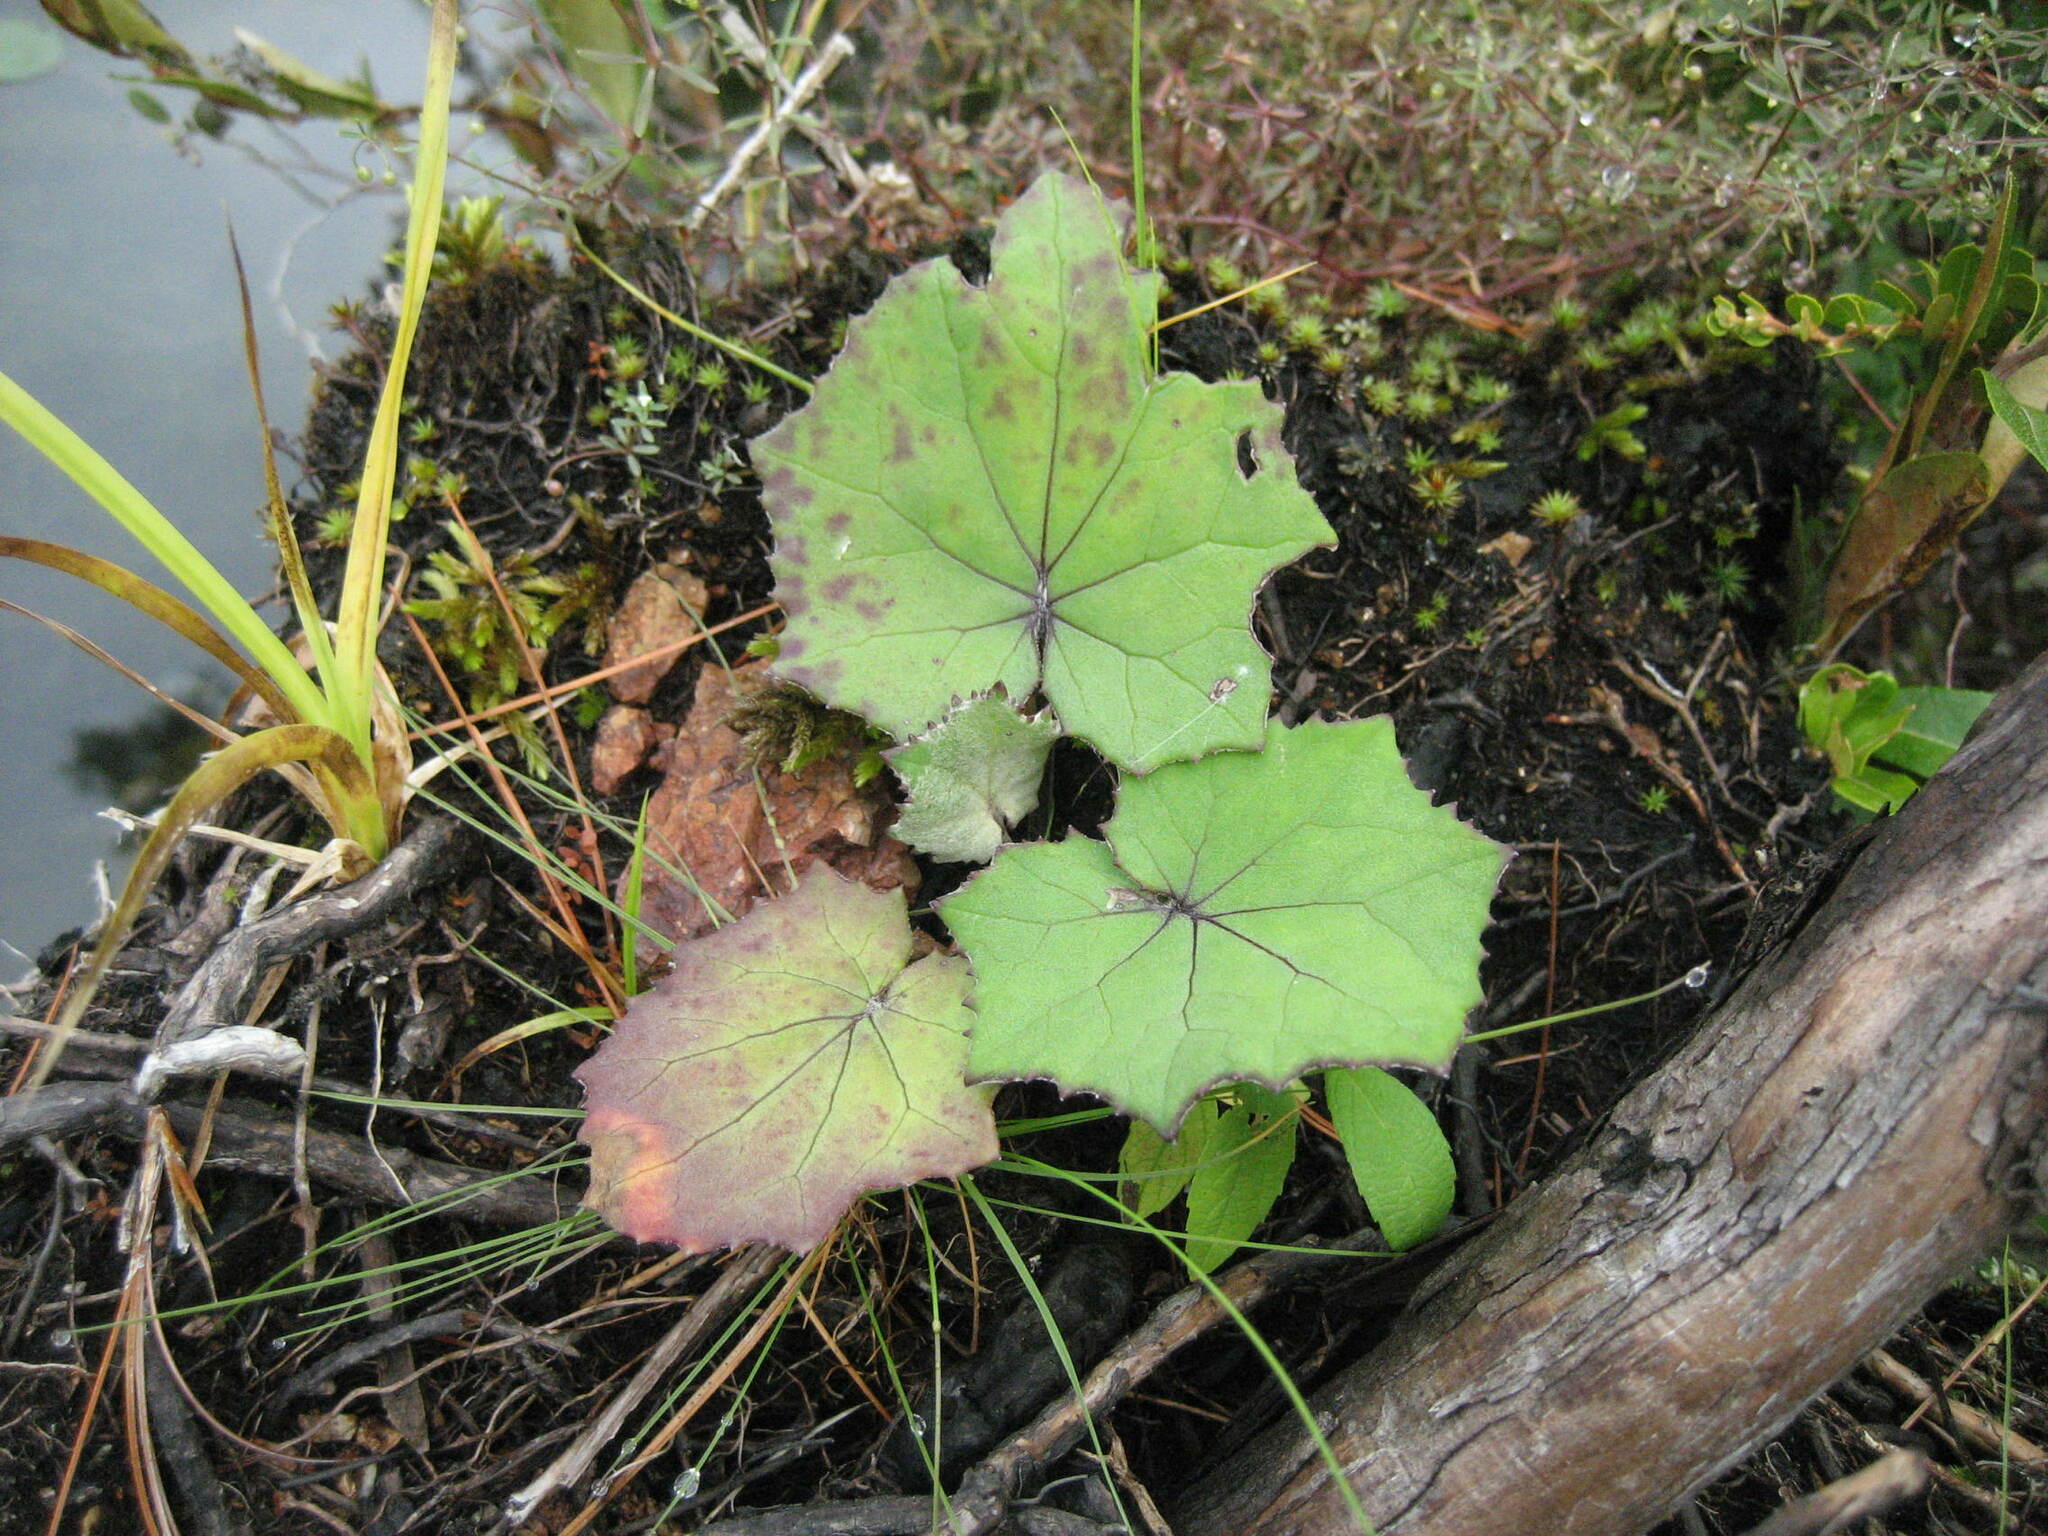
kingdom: Plantae
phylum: Tracheophyta
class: Magnoliopsida
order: Asterales
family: Asteraceae
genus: Tussilago
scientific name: Tussilago farfara
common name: Coltsfoot
